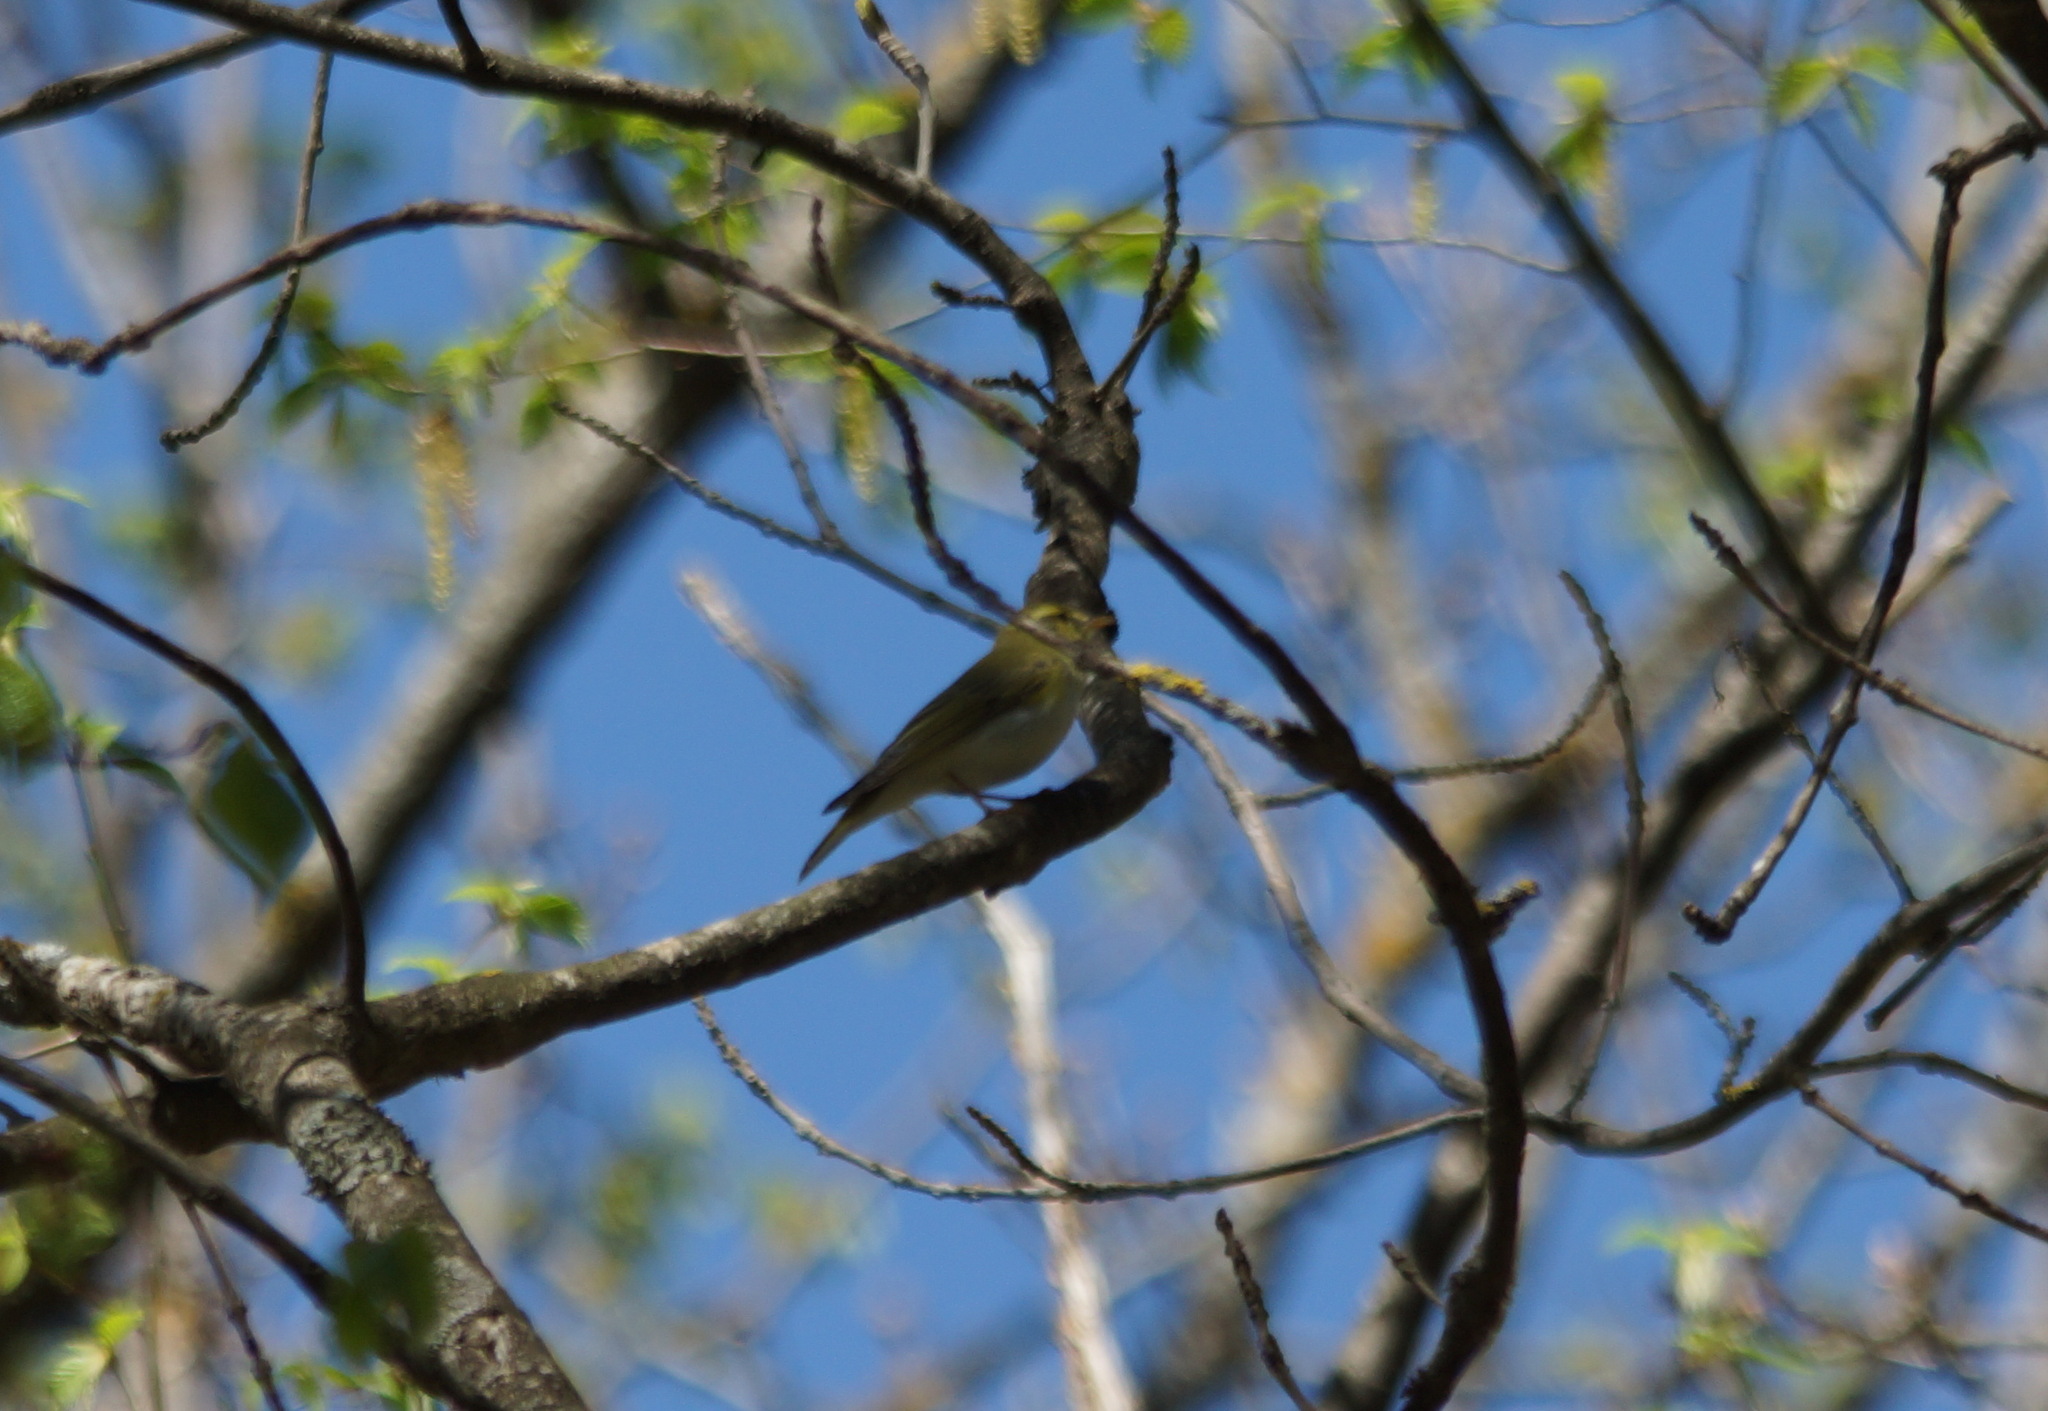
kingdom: Animalia
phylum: Chordata
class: Aves
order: Passeriformes
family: Phylloscopidae
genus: Phylloscopus
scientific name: Phylloscopus sibillatrix
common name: Wood warbler
